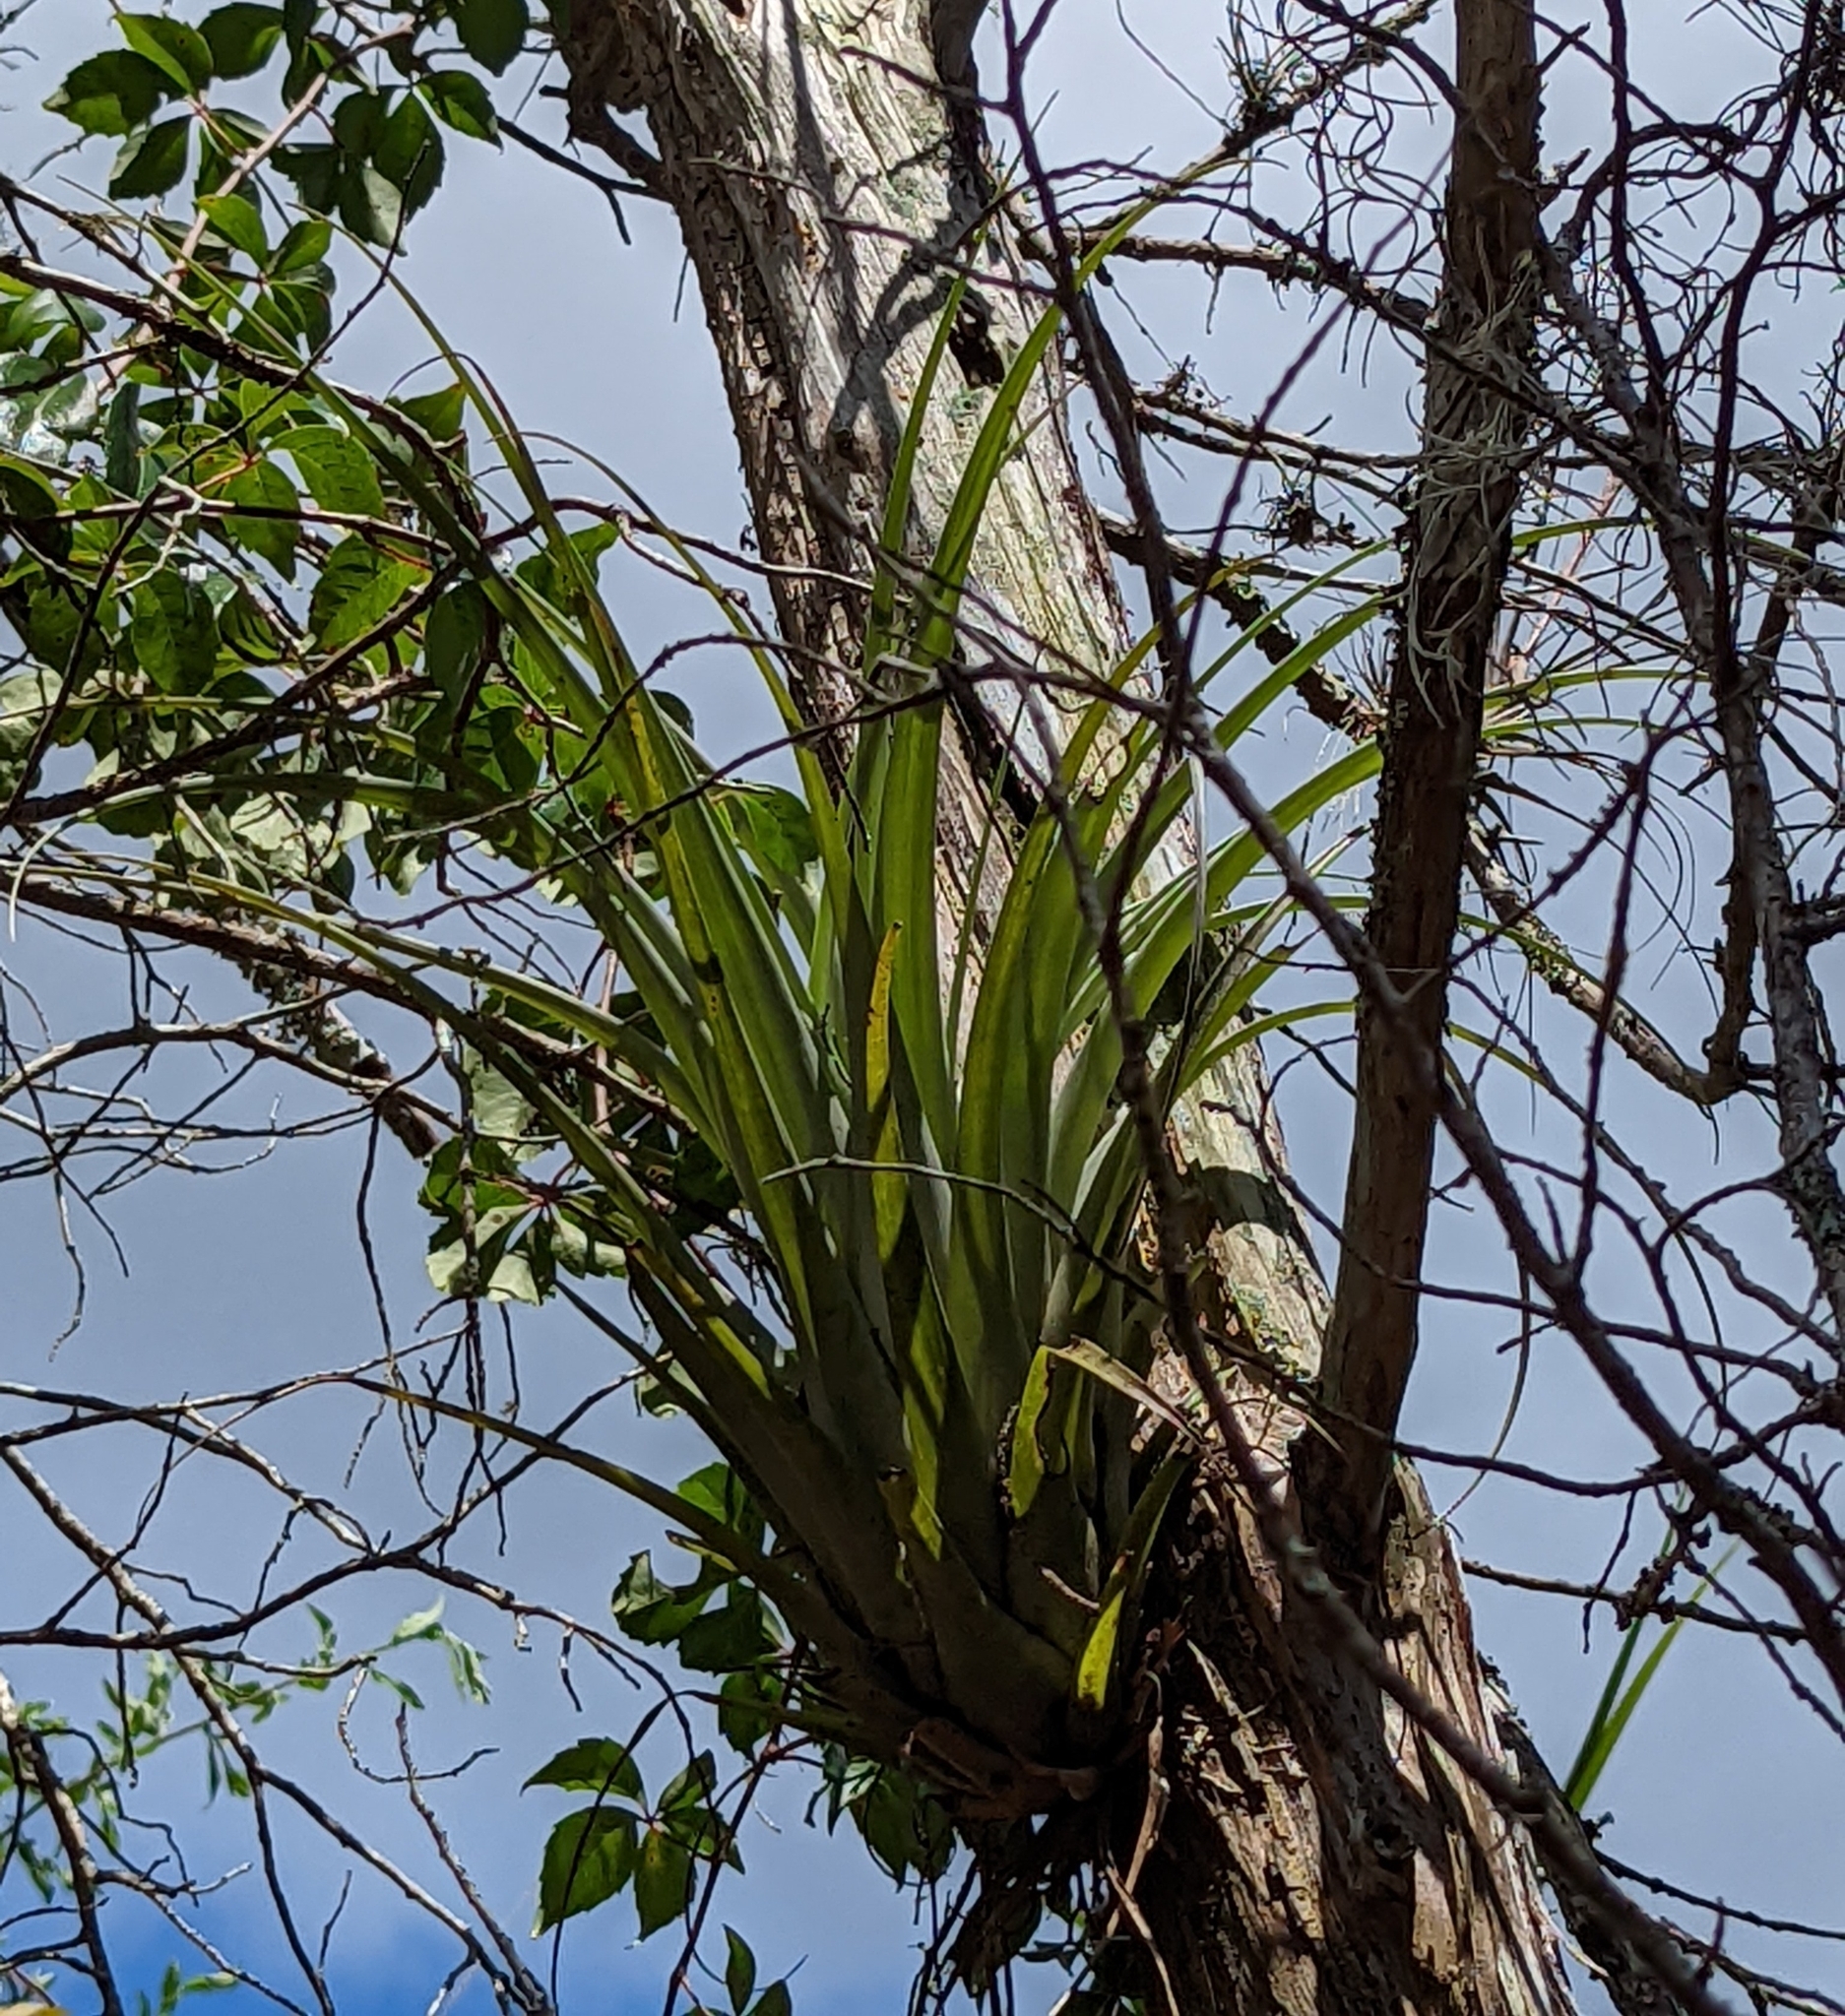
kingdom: Plantae
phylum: Tracheophyta
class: Liliopsida
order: Poales
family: Bromeliaceae
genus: Tillandsia
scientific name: Tillandsia utriculata
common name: Wild pine
